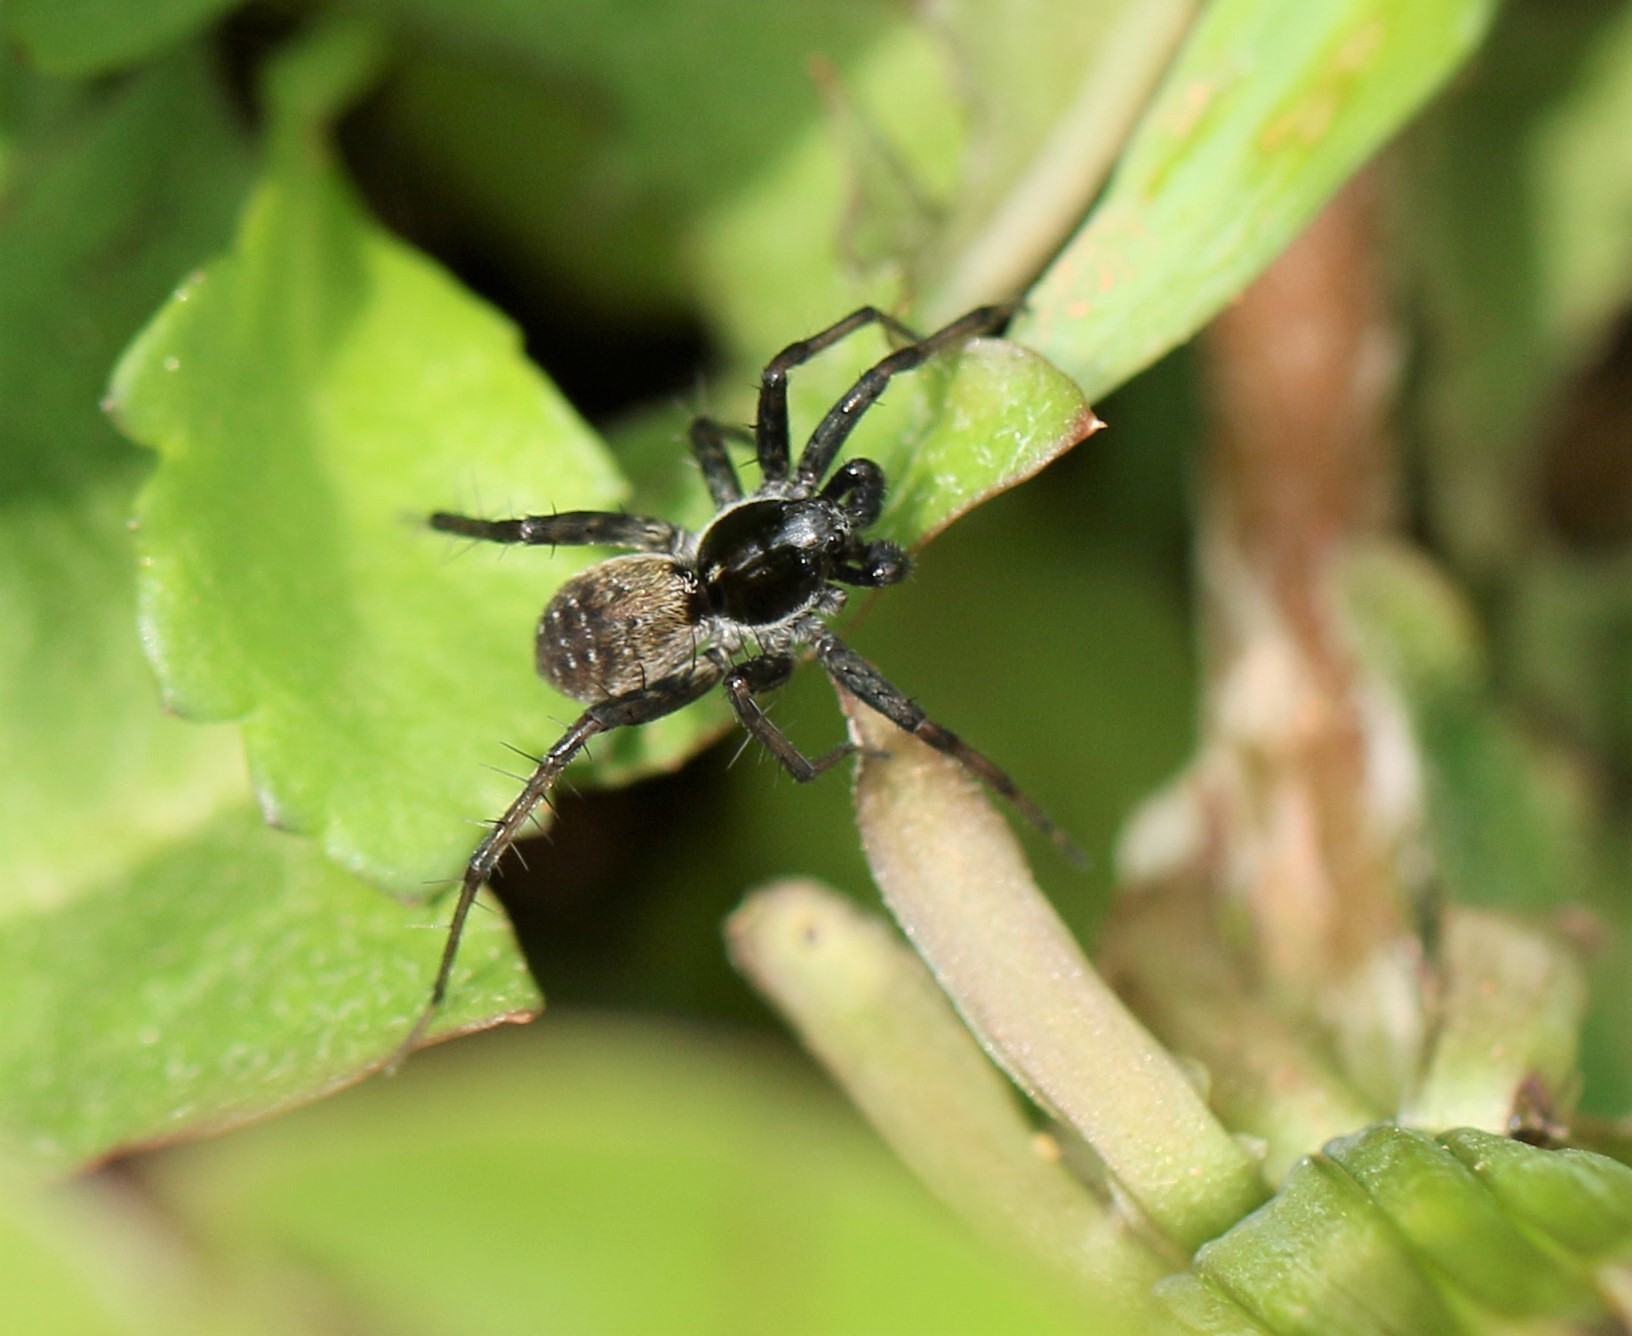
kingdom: Animalia
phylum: Arthropoda
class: Arachnida
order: Araneae
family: Lycosidae
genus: Pardosa
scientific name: Pardosa moesta
